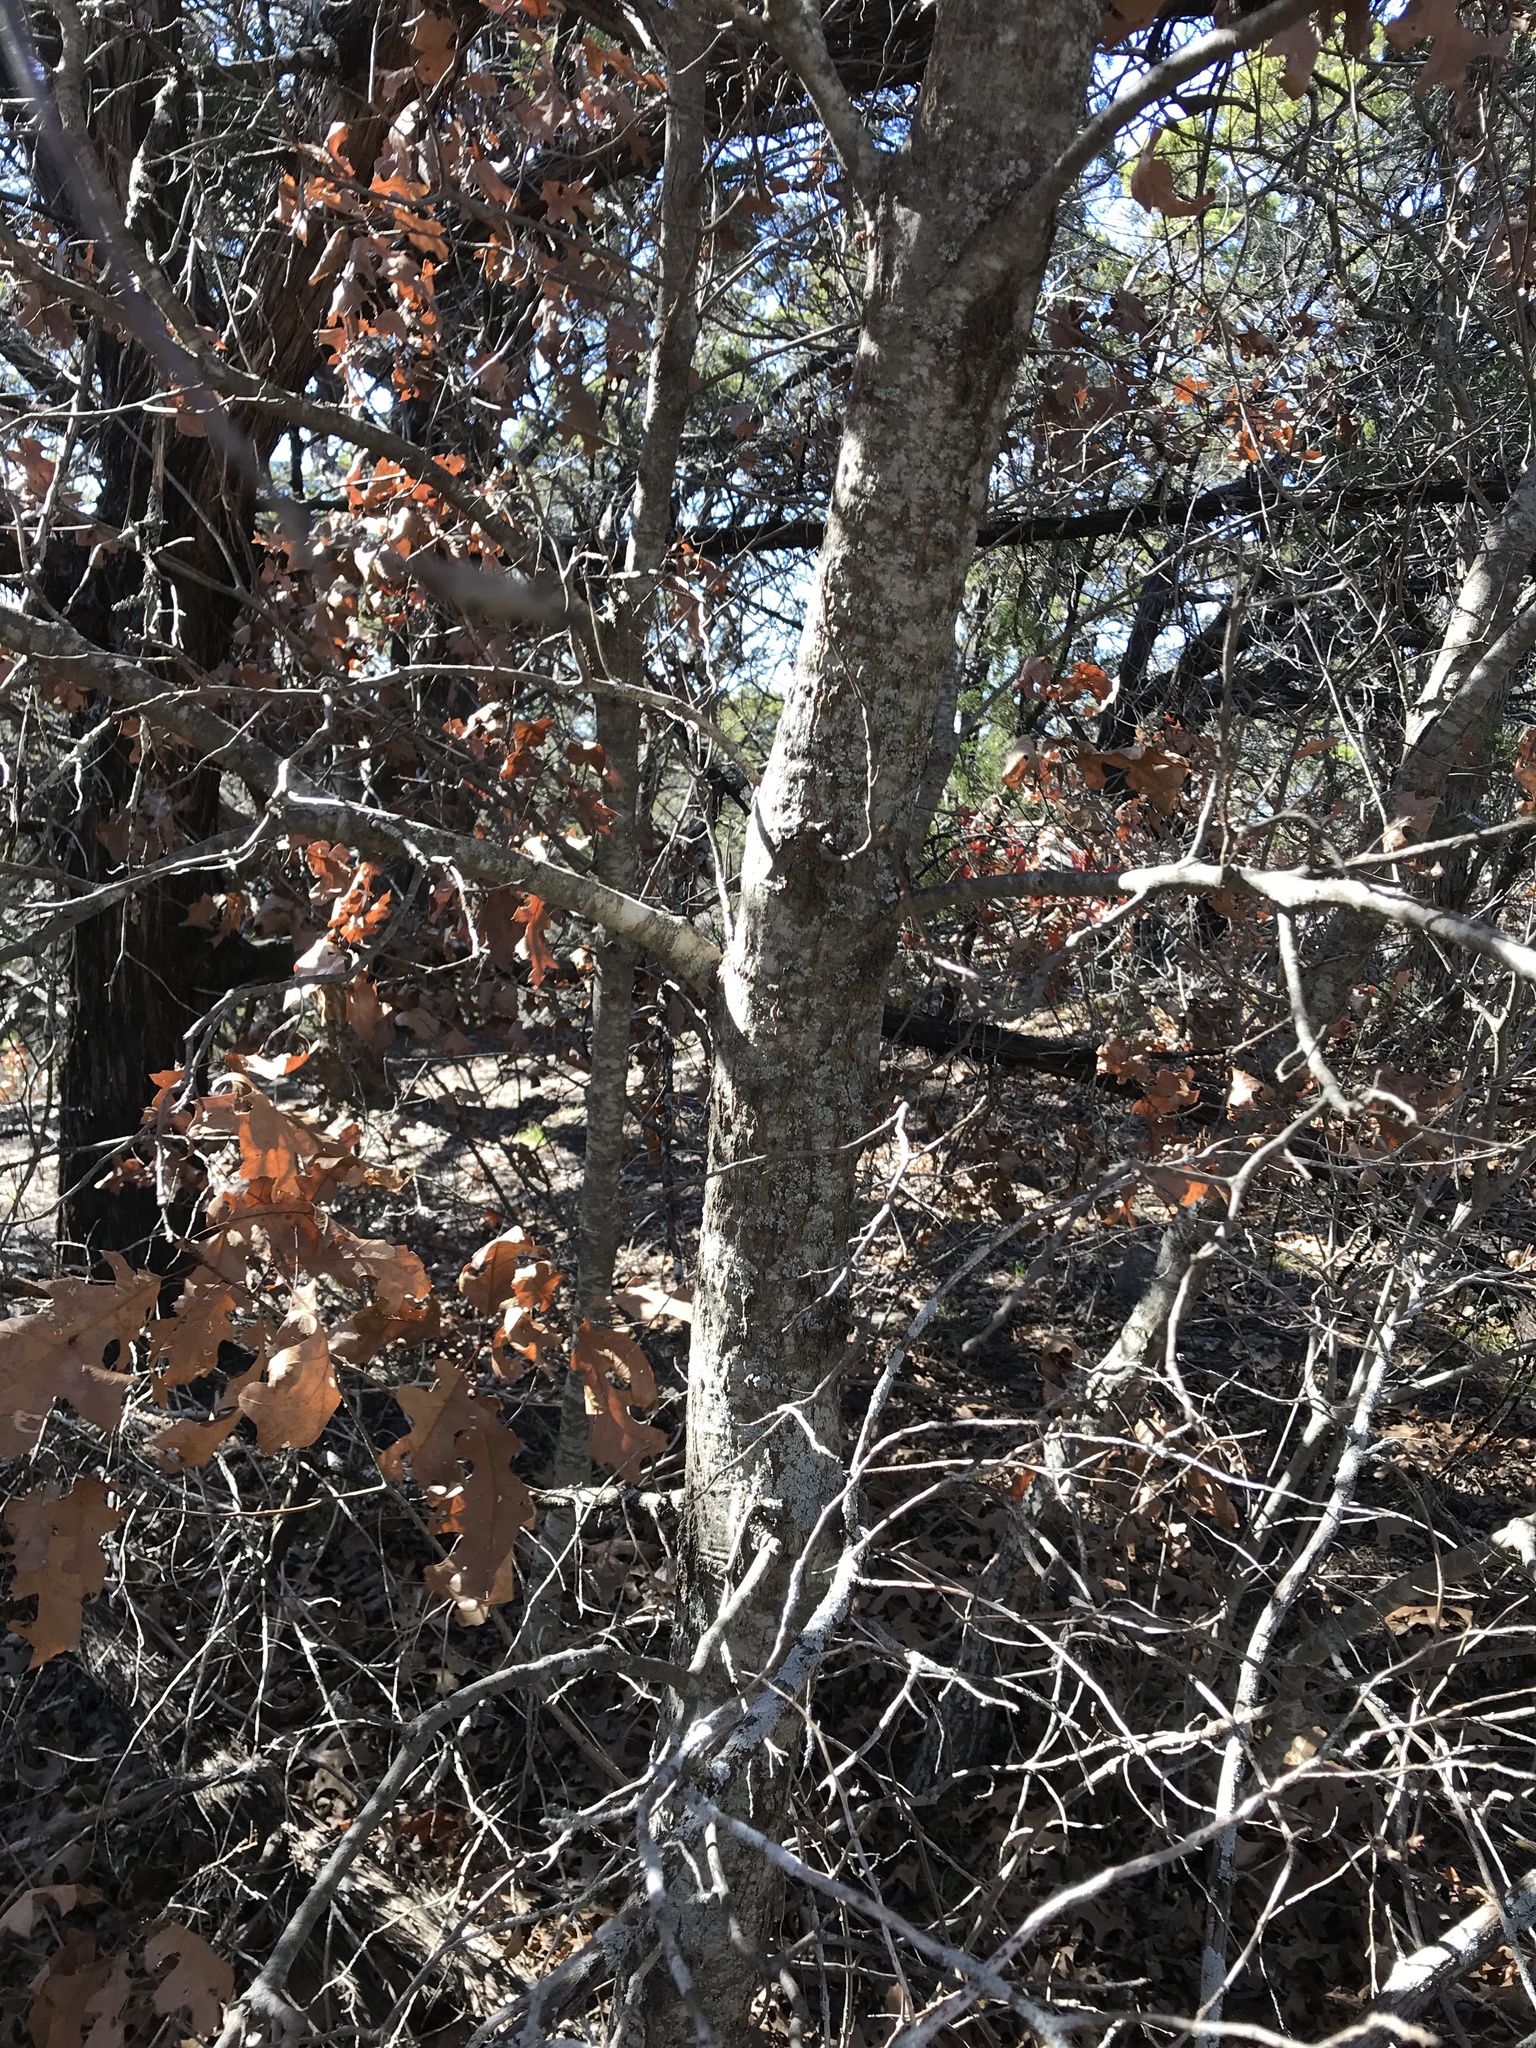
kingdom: Plantae
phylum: Tracheophyta
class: Magnoliopsida
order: Fagales
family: Fagaceae
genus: Quercus
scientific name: Quercus buckleyi
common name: Buckley oak
